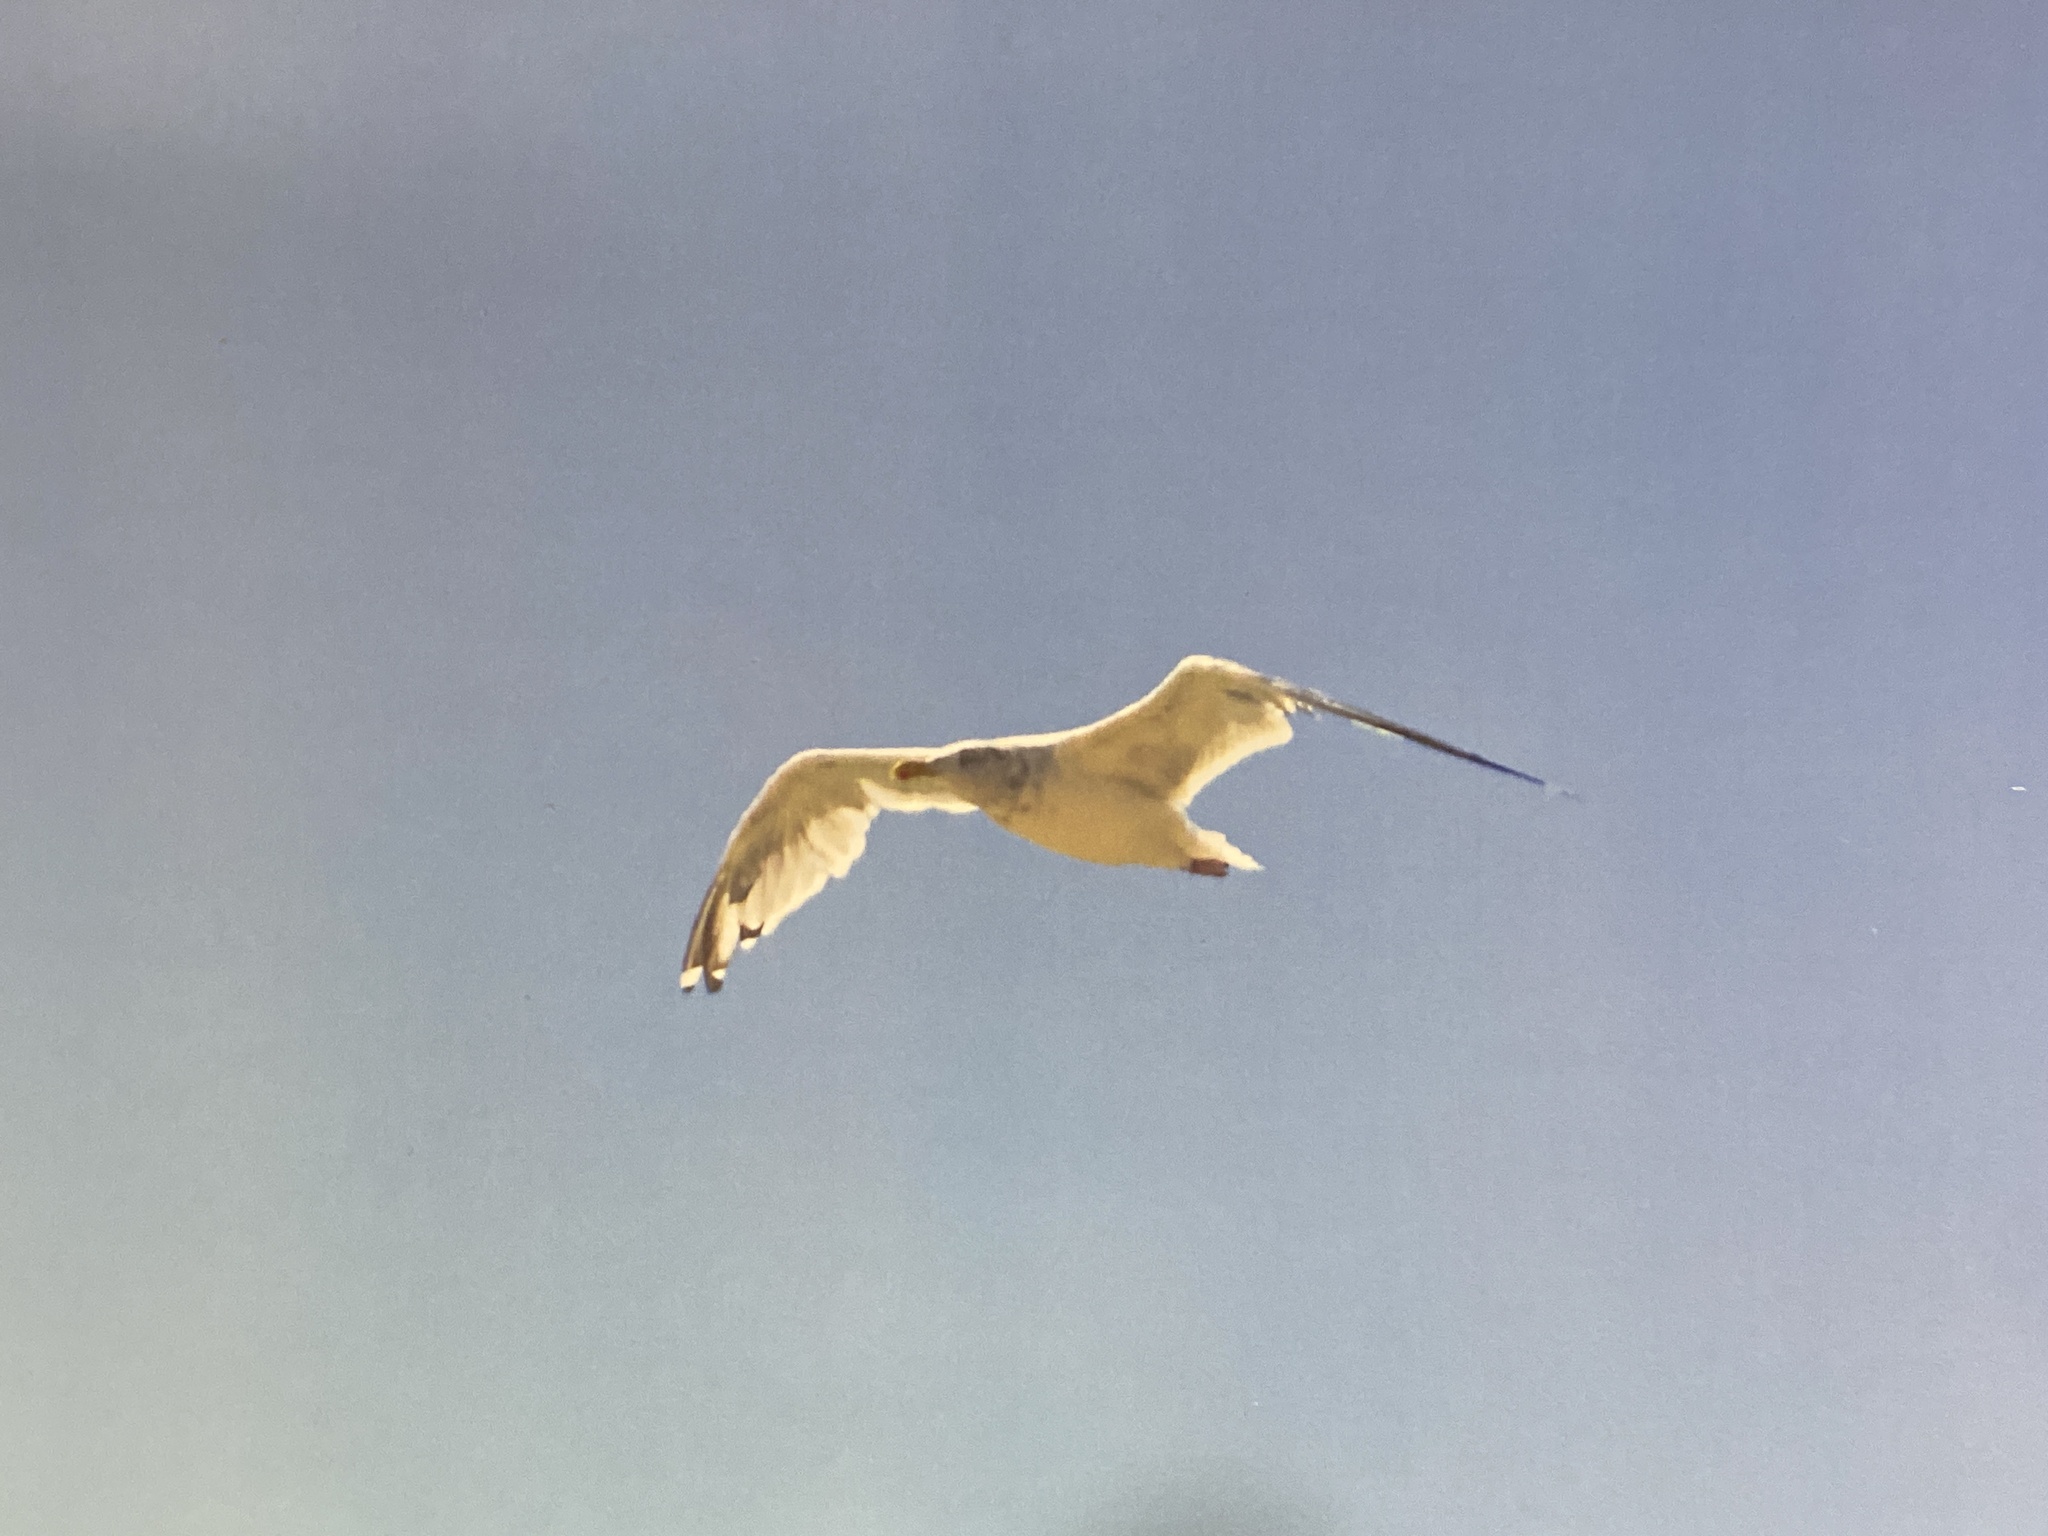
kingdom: Animalia
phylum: Chordata
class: Aves
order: Charadriiformes
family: Laridae
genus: Larus
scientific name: Larus smithsonianus
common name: American herring gull
